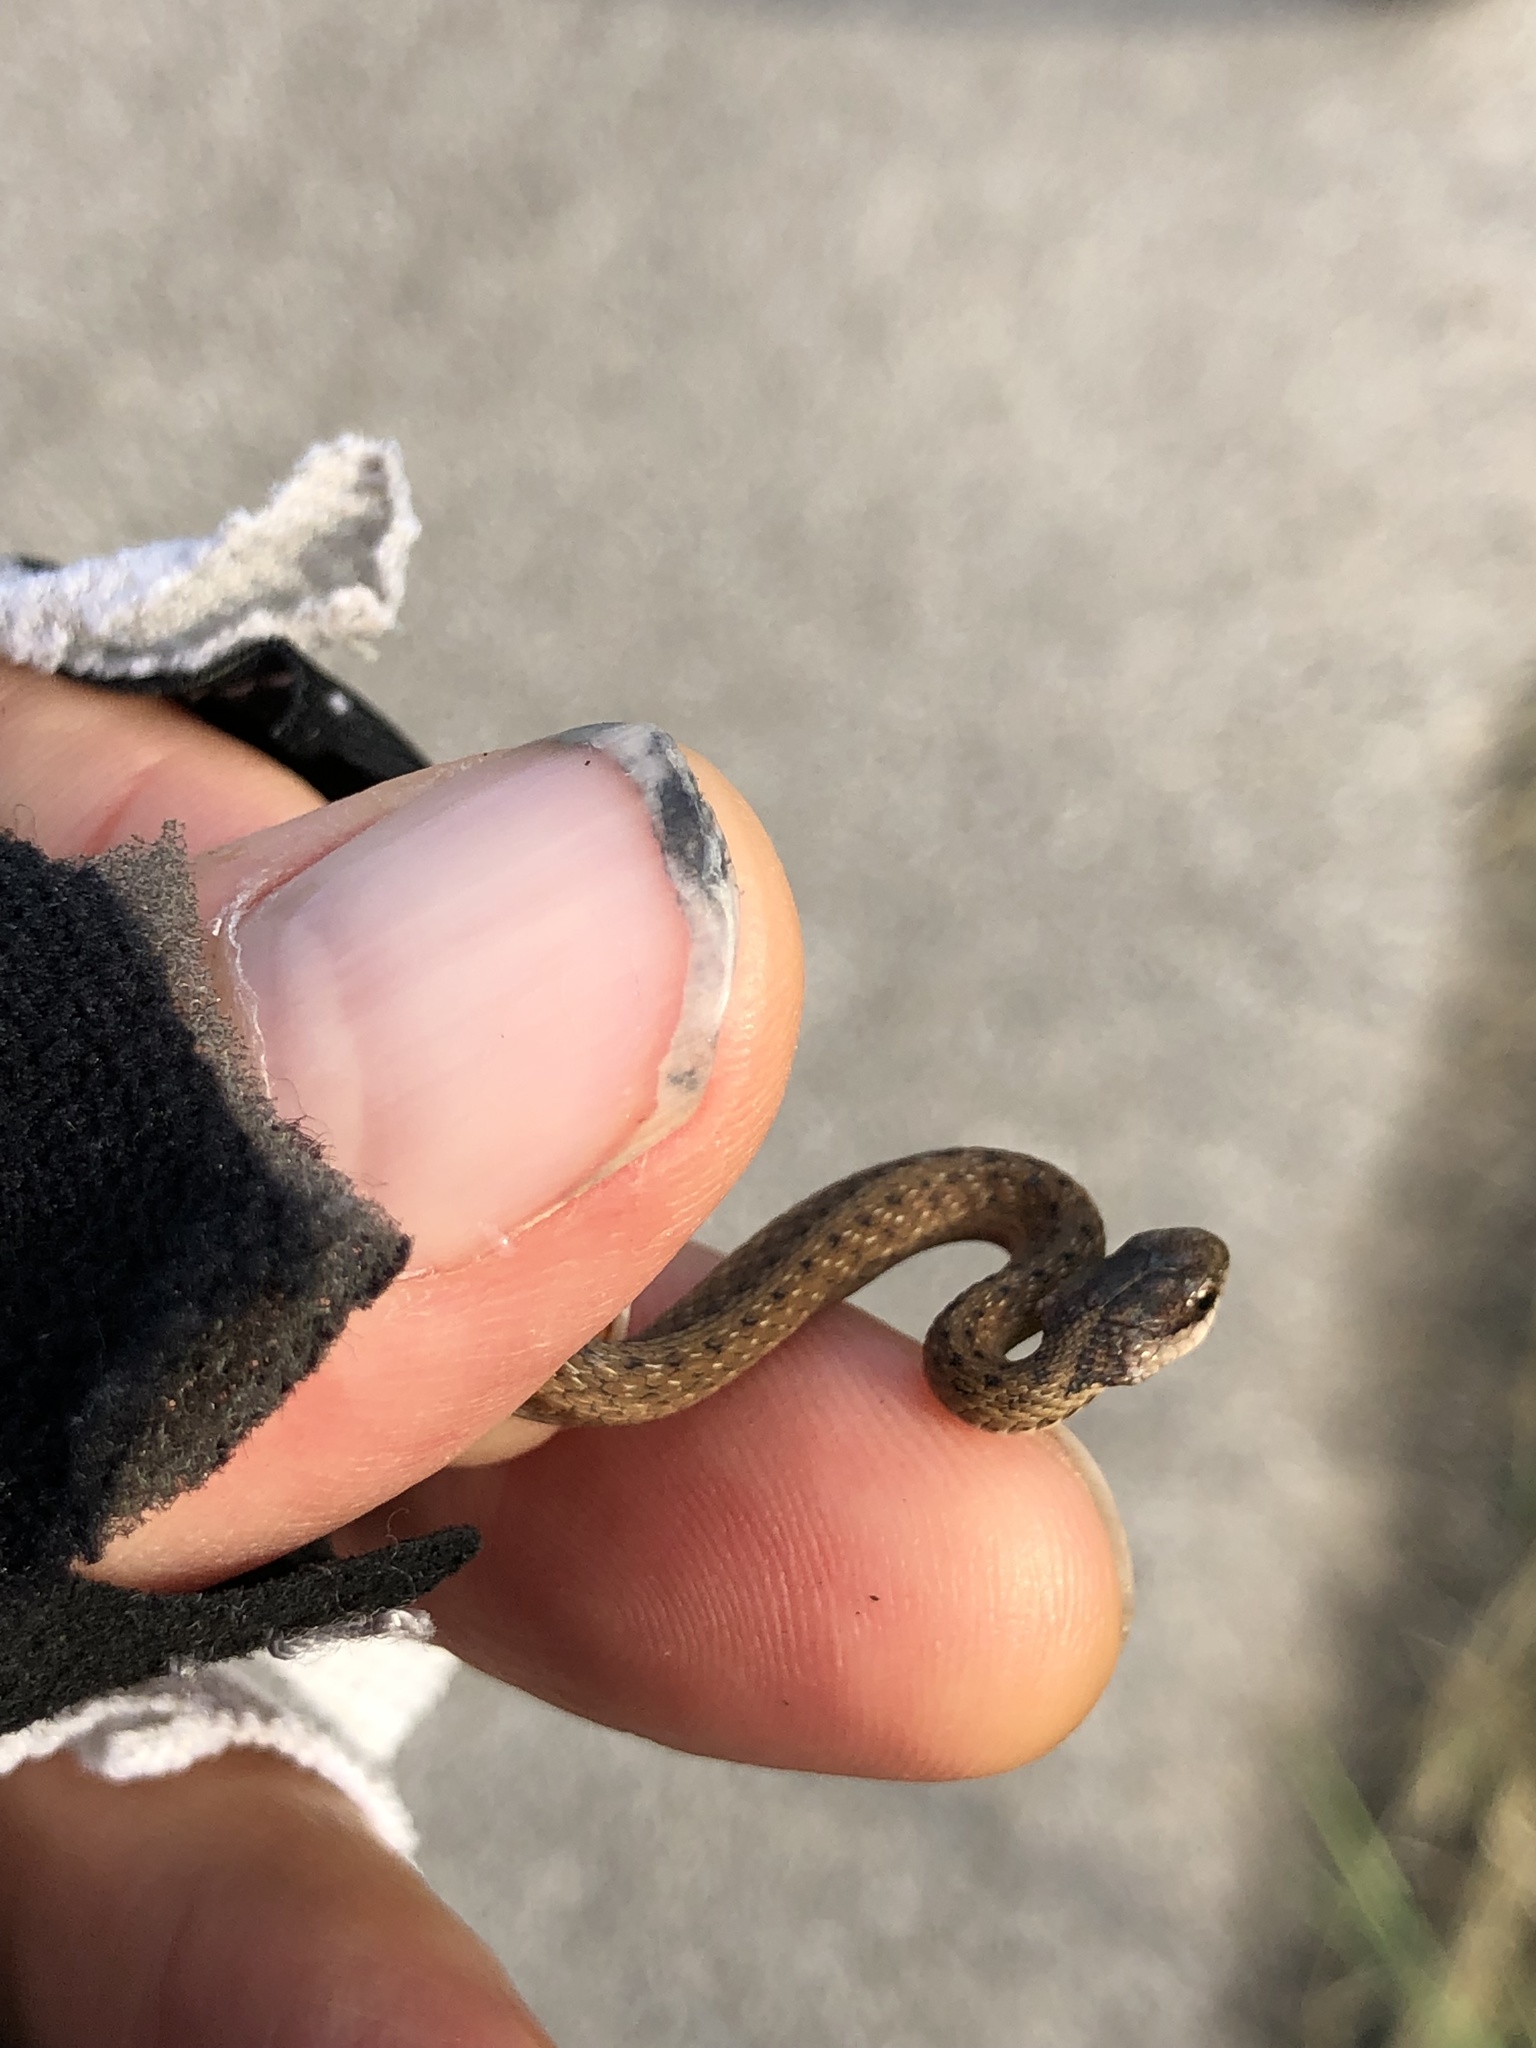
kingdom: Animalia
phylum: Chordata
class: Squamata
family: Colubridae
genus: Storeria
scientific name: Storeria dekayi
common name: (dekay’s) brown snake
